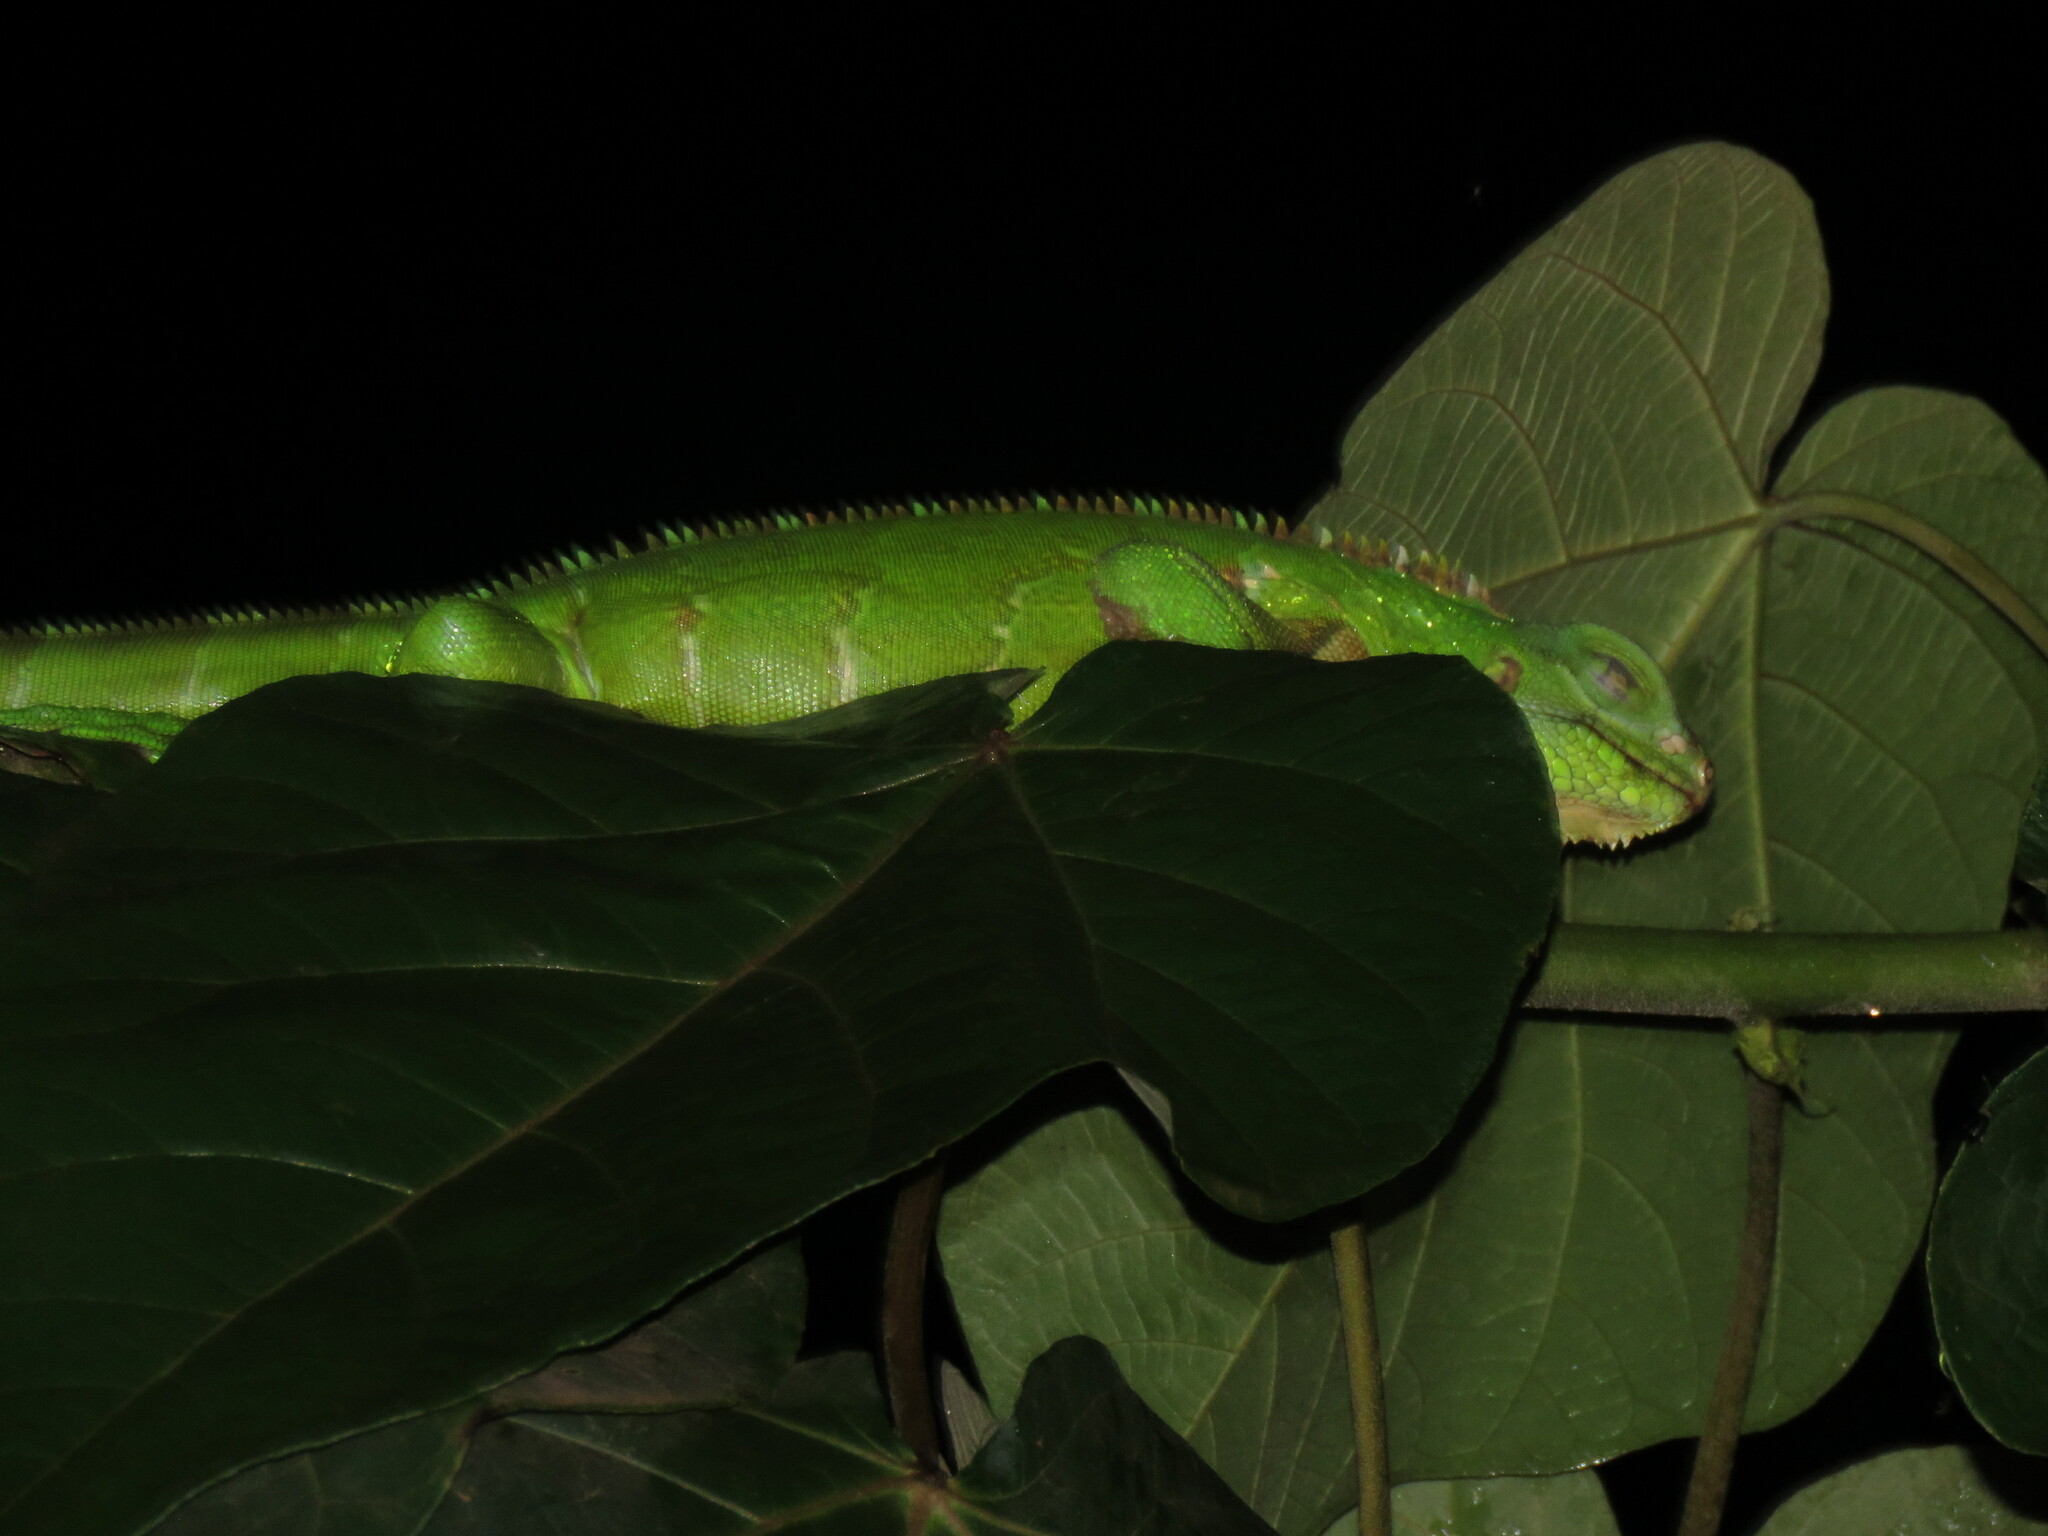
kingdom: Animalia
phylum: Chordata
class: Squamata
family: Iguanidae
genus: Iguana
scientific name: Iguana iguana
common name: Green iguana
